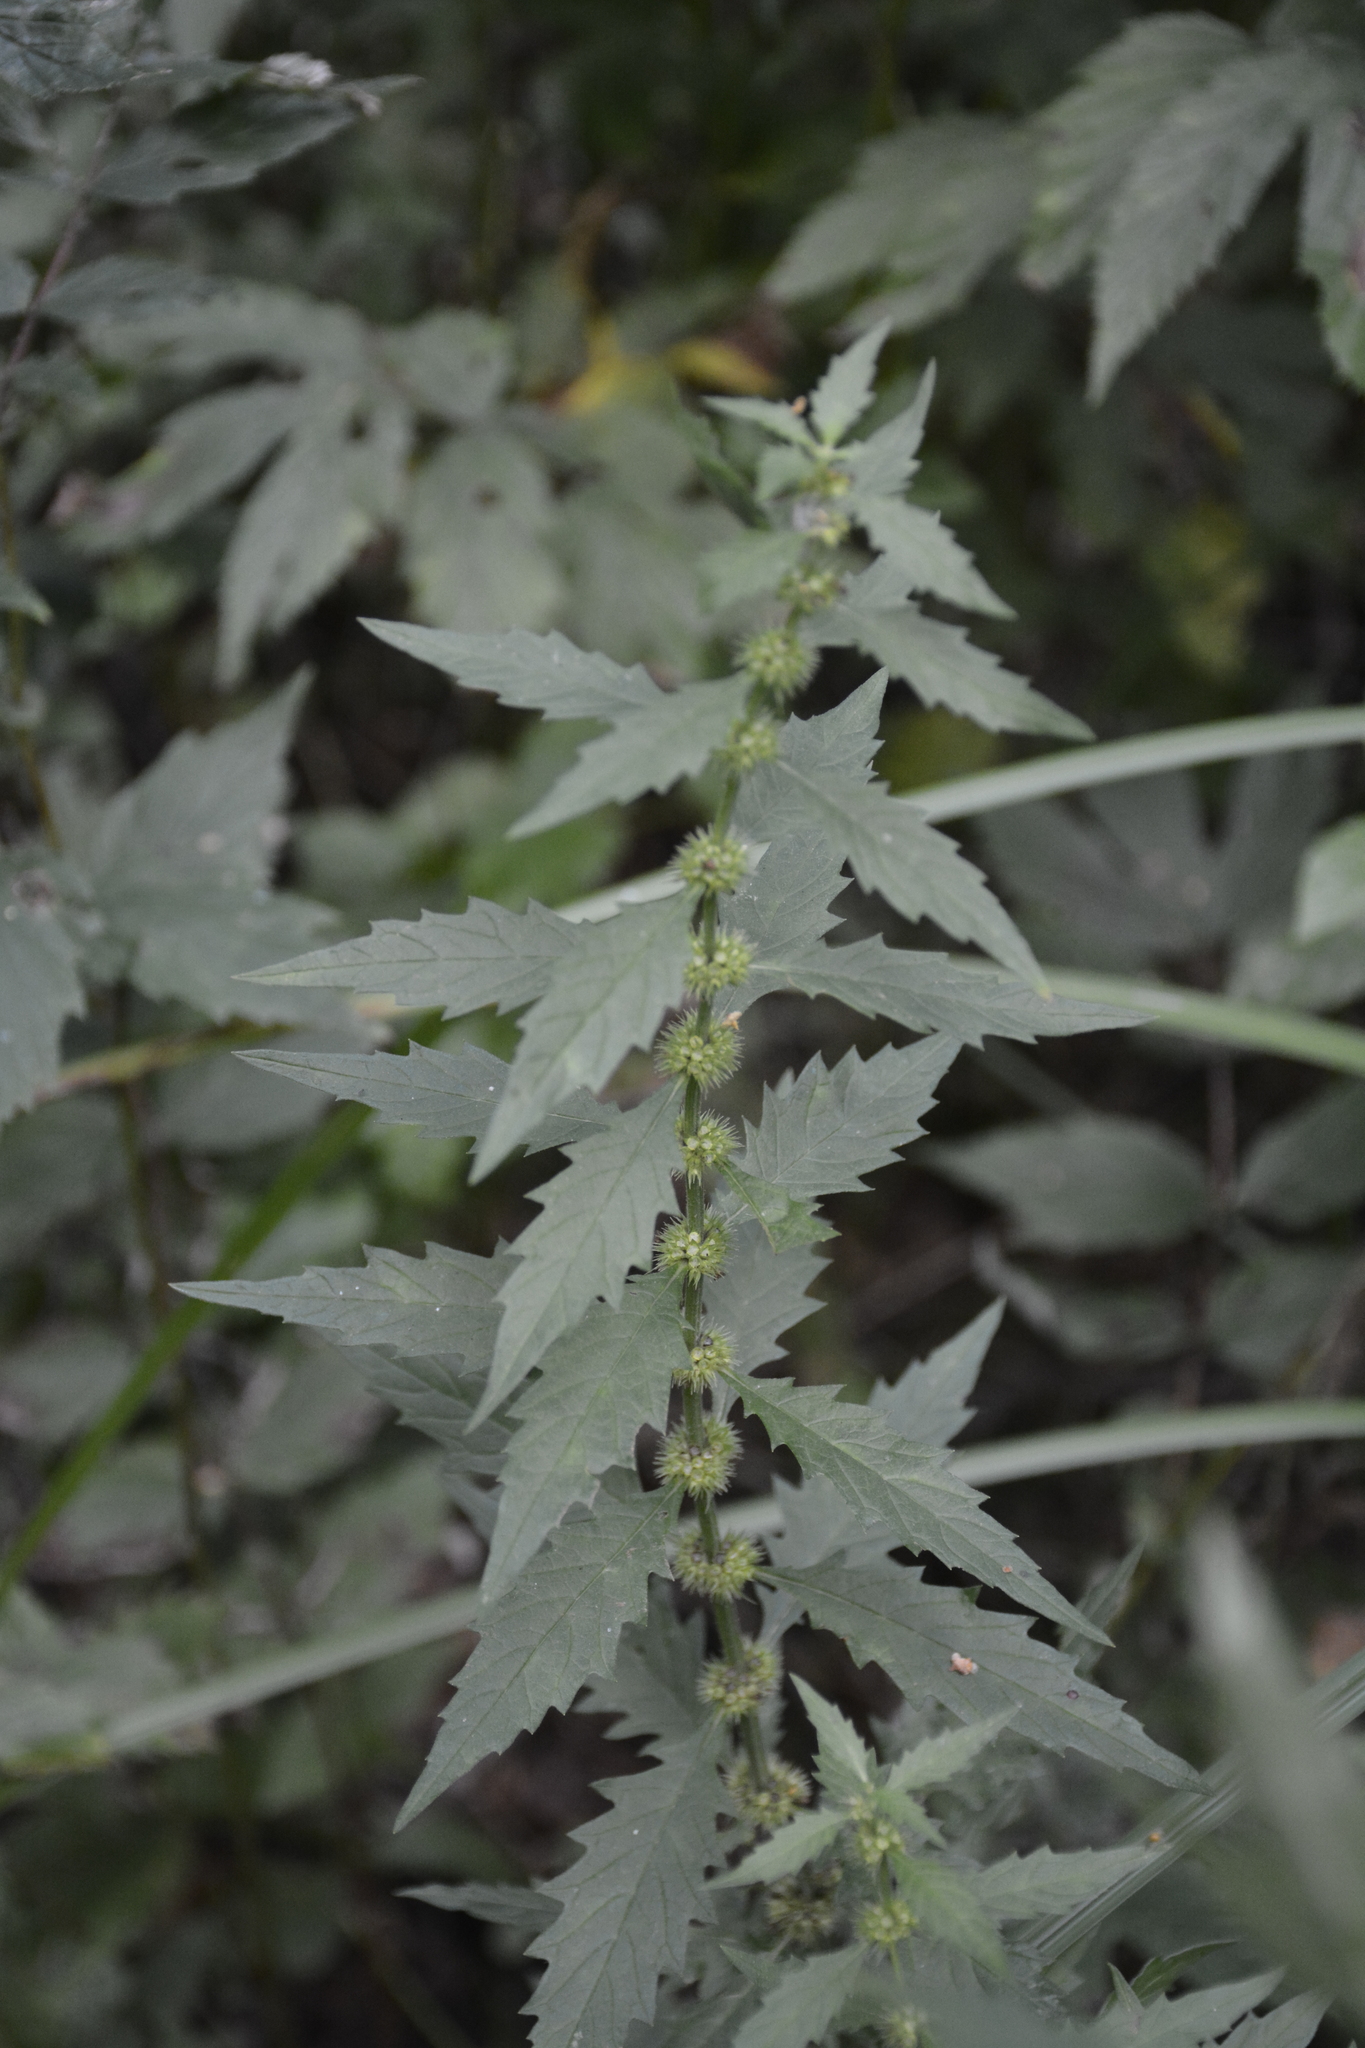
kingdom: Plantae
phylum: Tracheophyta
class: Magnoliopsida
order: Lamiales
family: Lamiaceae
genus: Lycopus
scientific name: Lycopus europaeus
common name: European bugleweed
